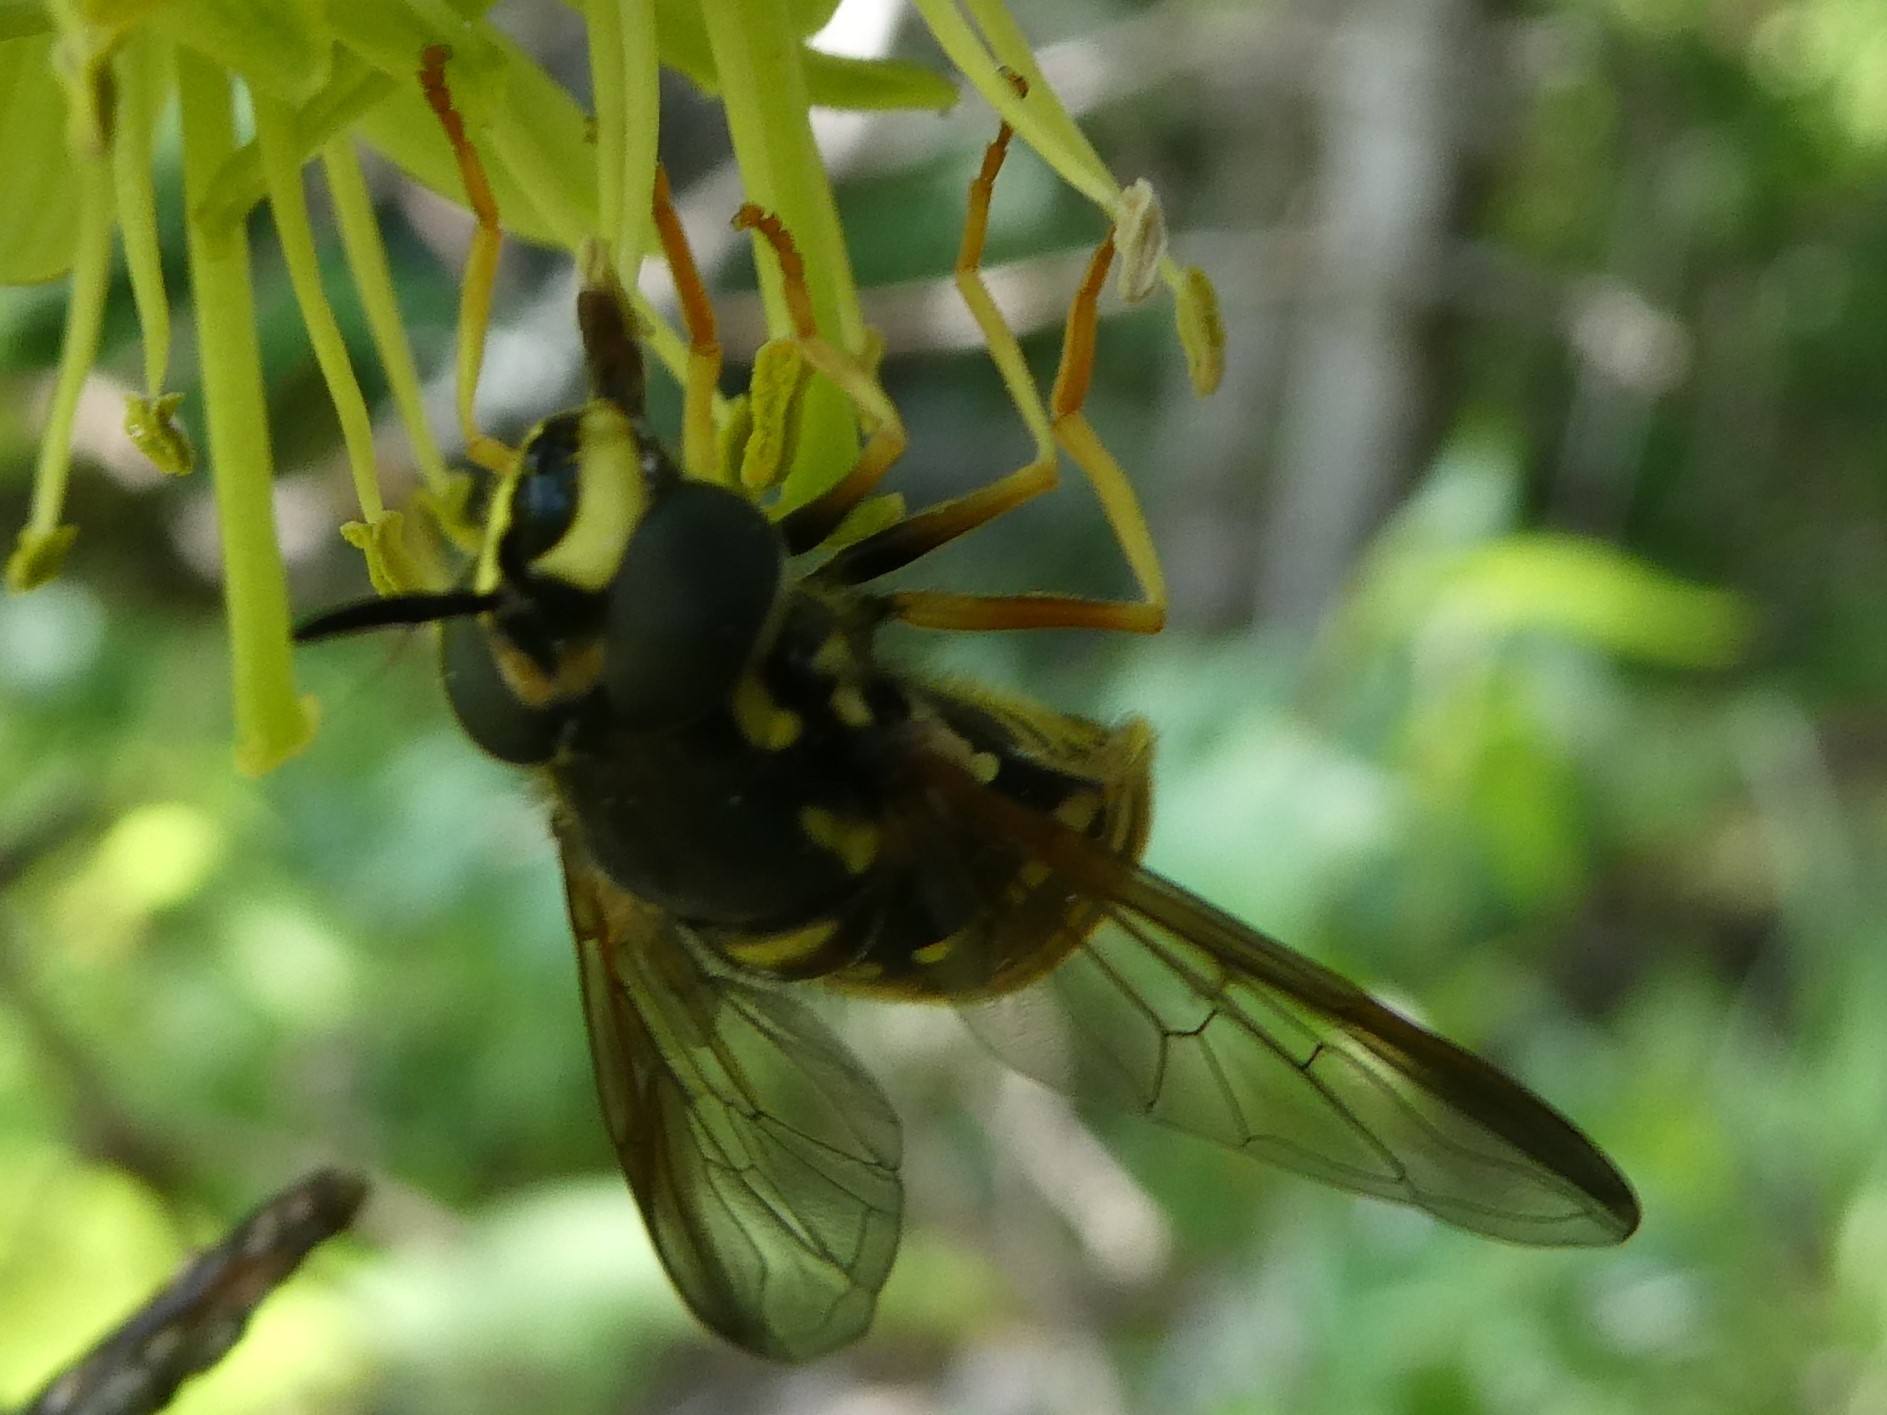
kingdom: Animalia
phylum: Arthropoda
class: Insecta
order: Diptera
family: Syrphidae
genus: Chrysotoxum
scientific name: Chrysotoxum
